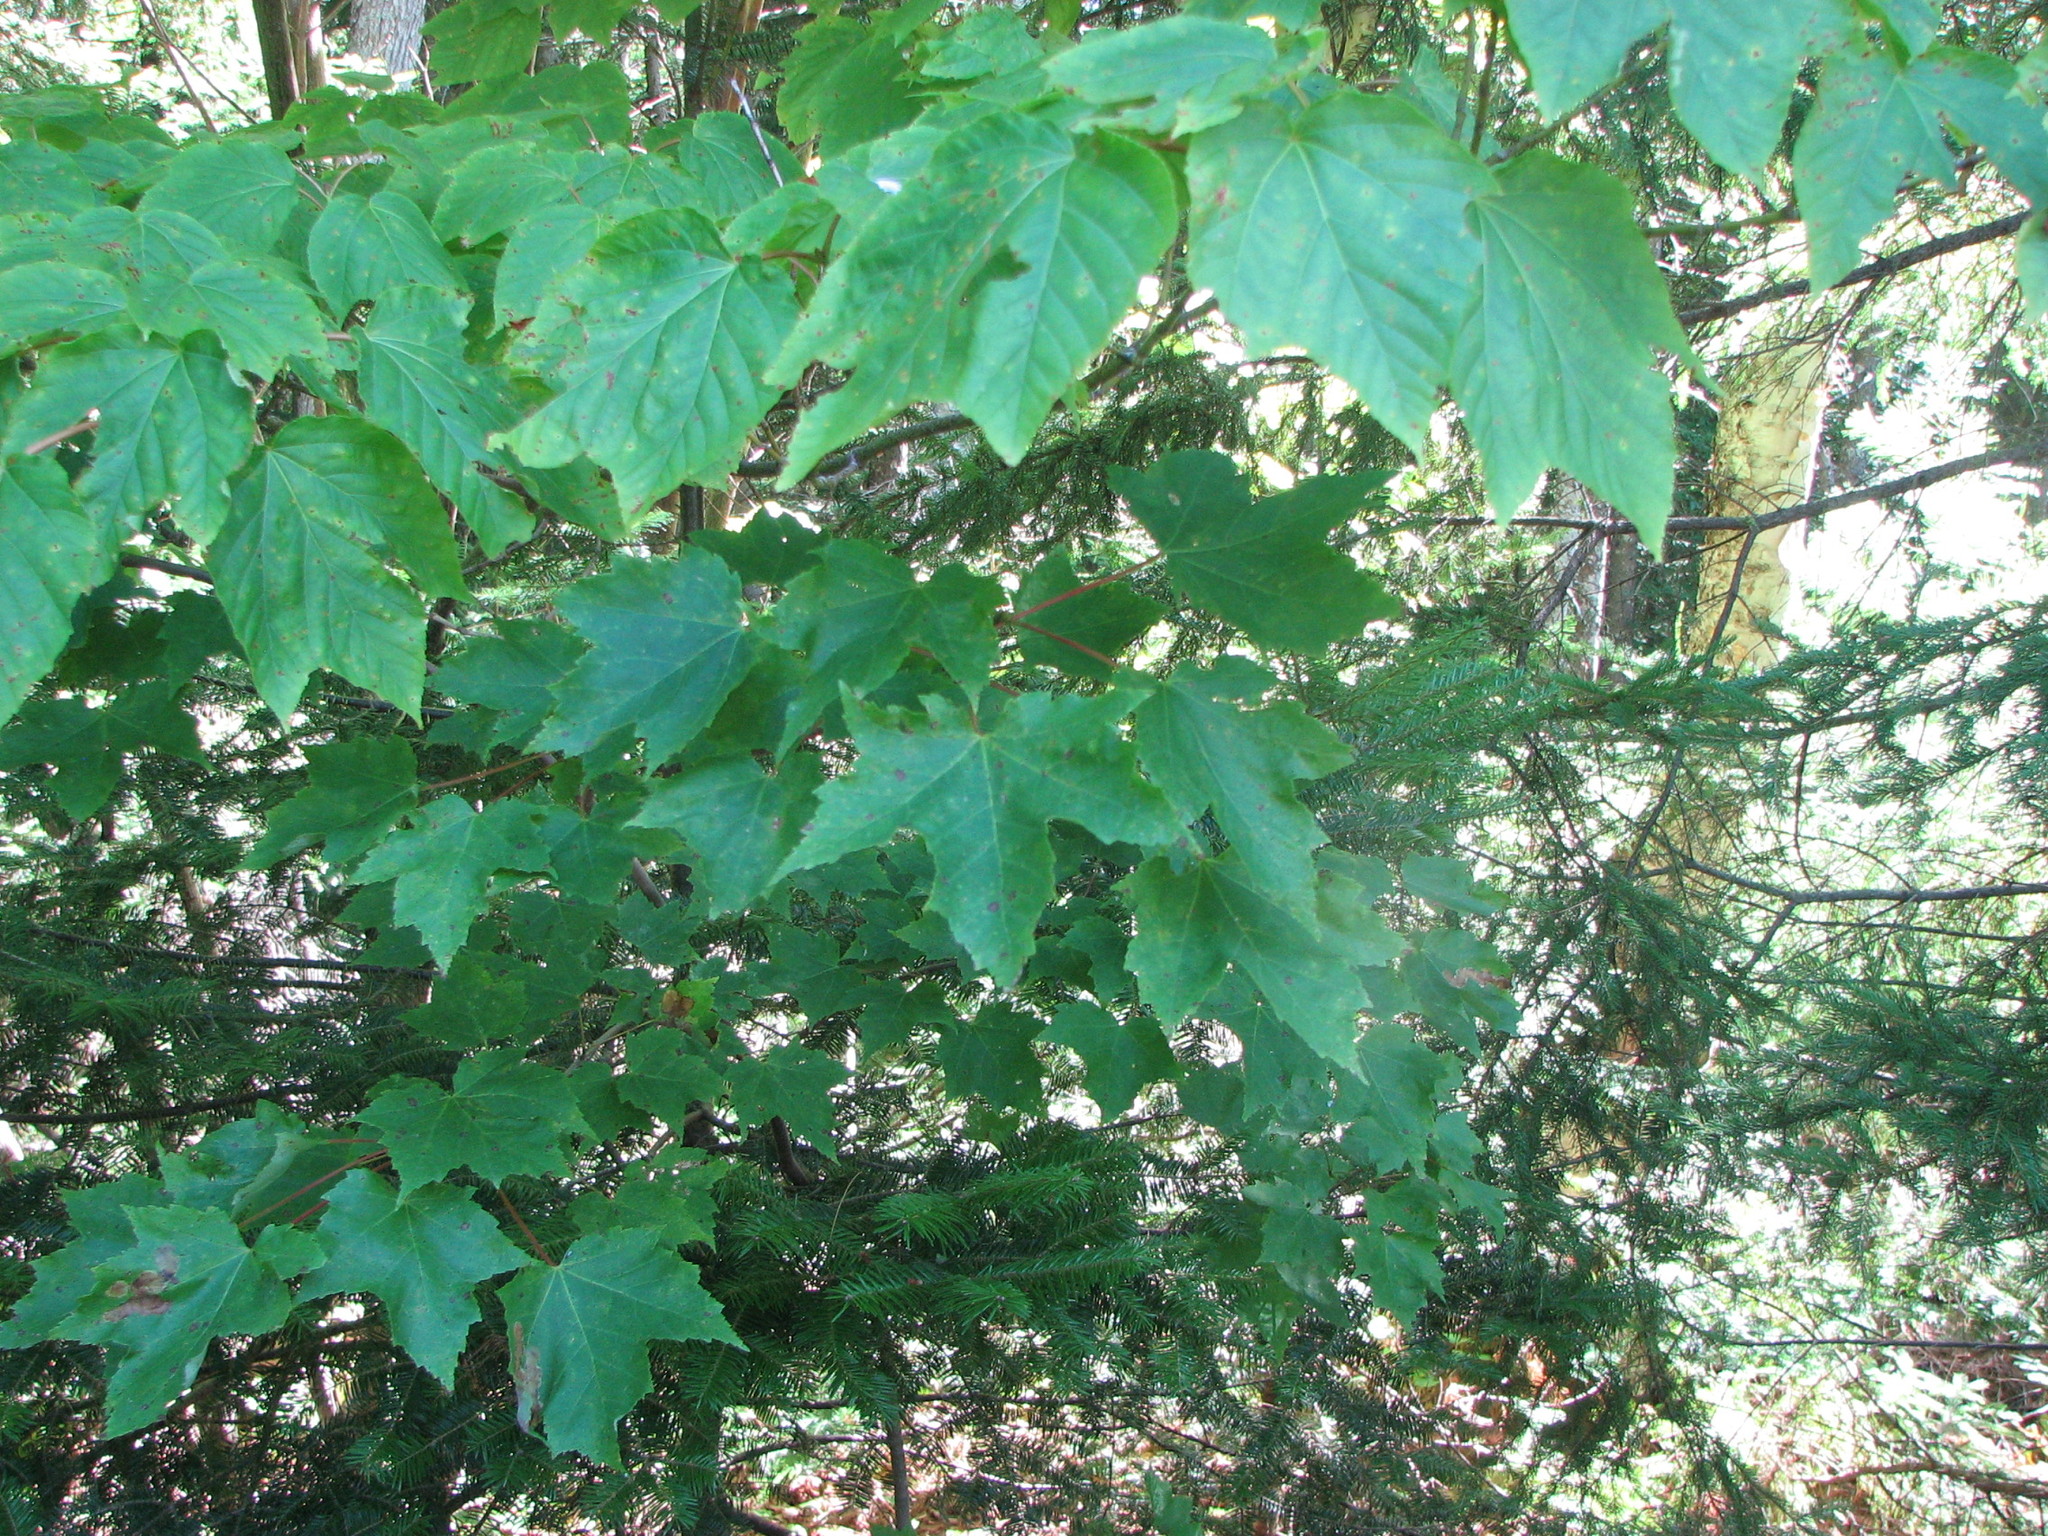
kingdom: Plantae
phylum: Tracheophyta
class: Magnoliopsida
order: Sapindales
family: Sapindaceae
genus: Acer
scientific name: Acer saccharum
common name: Sugar maple
